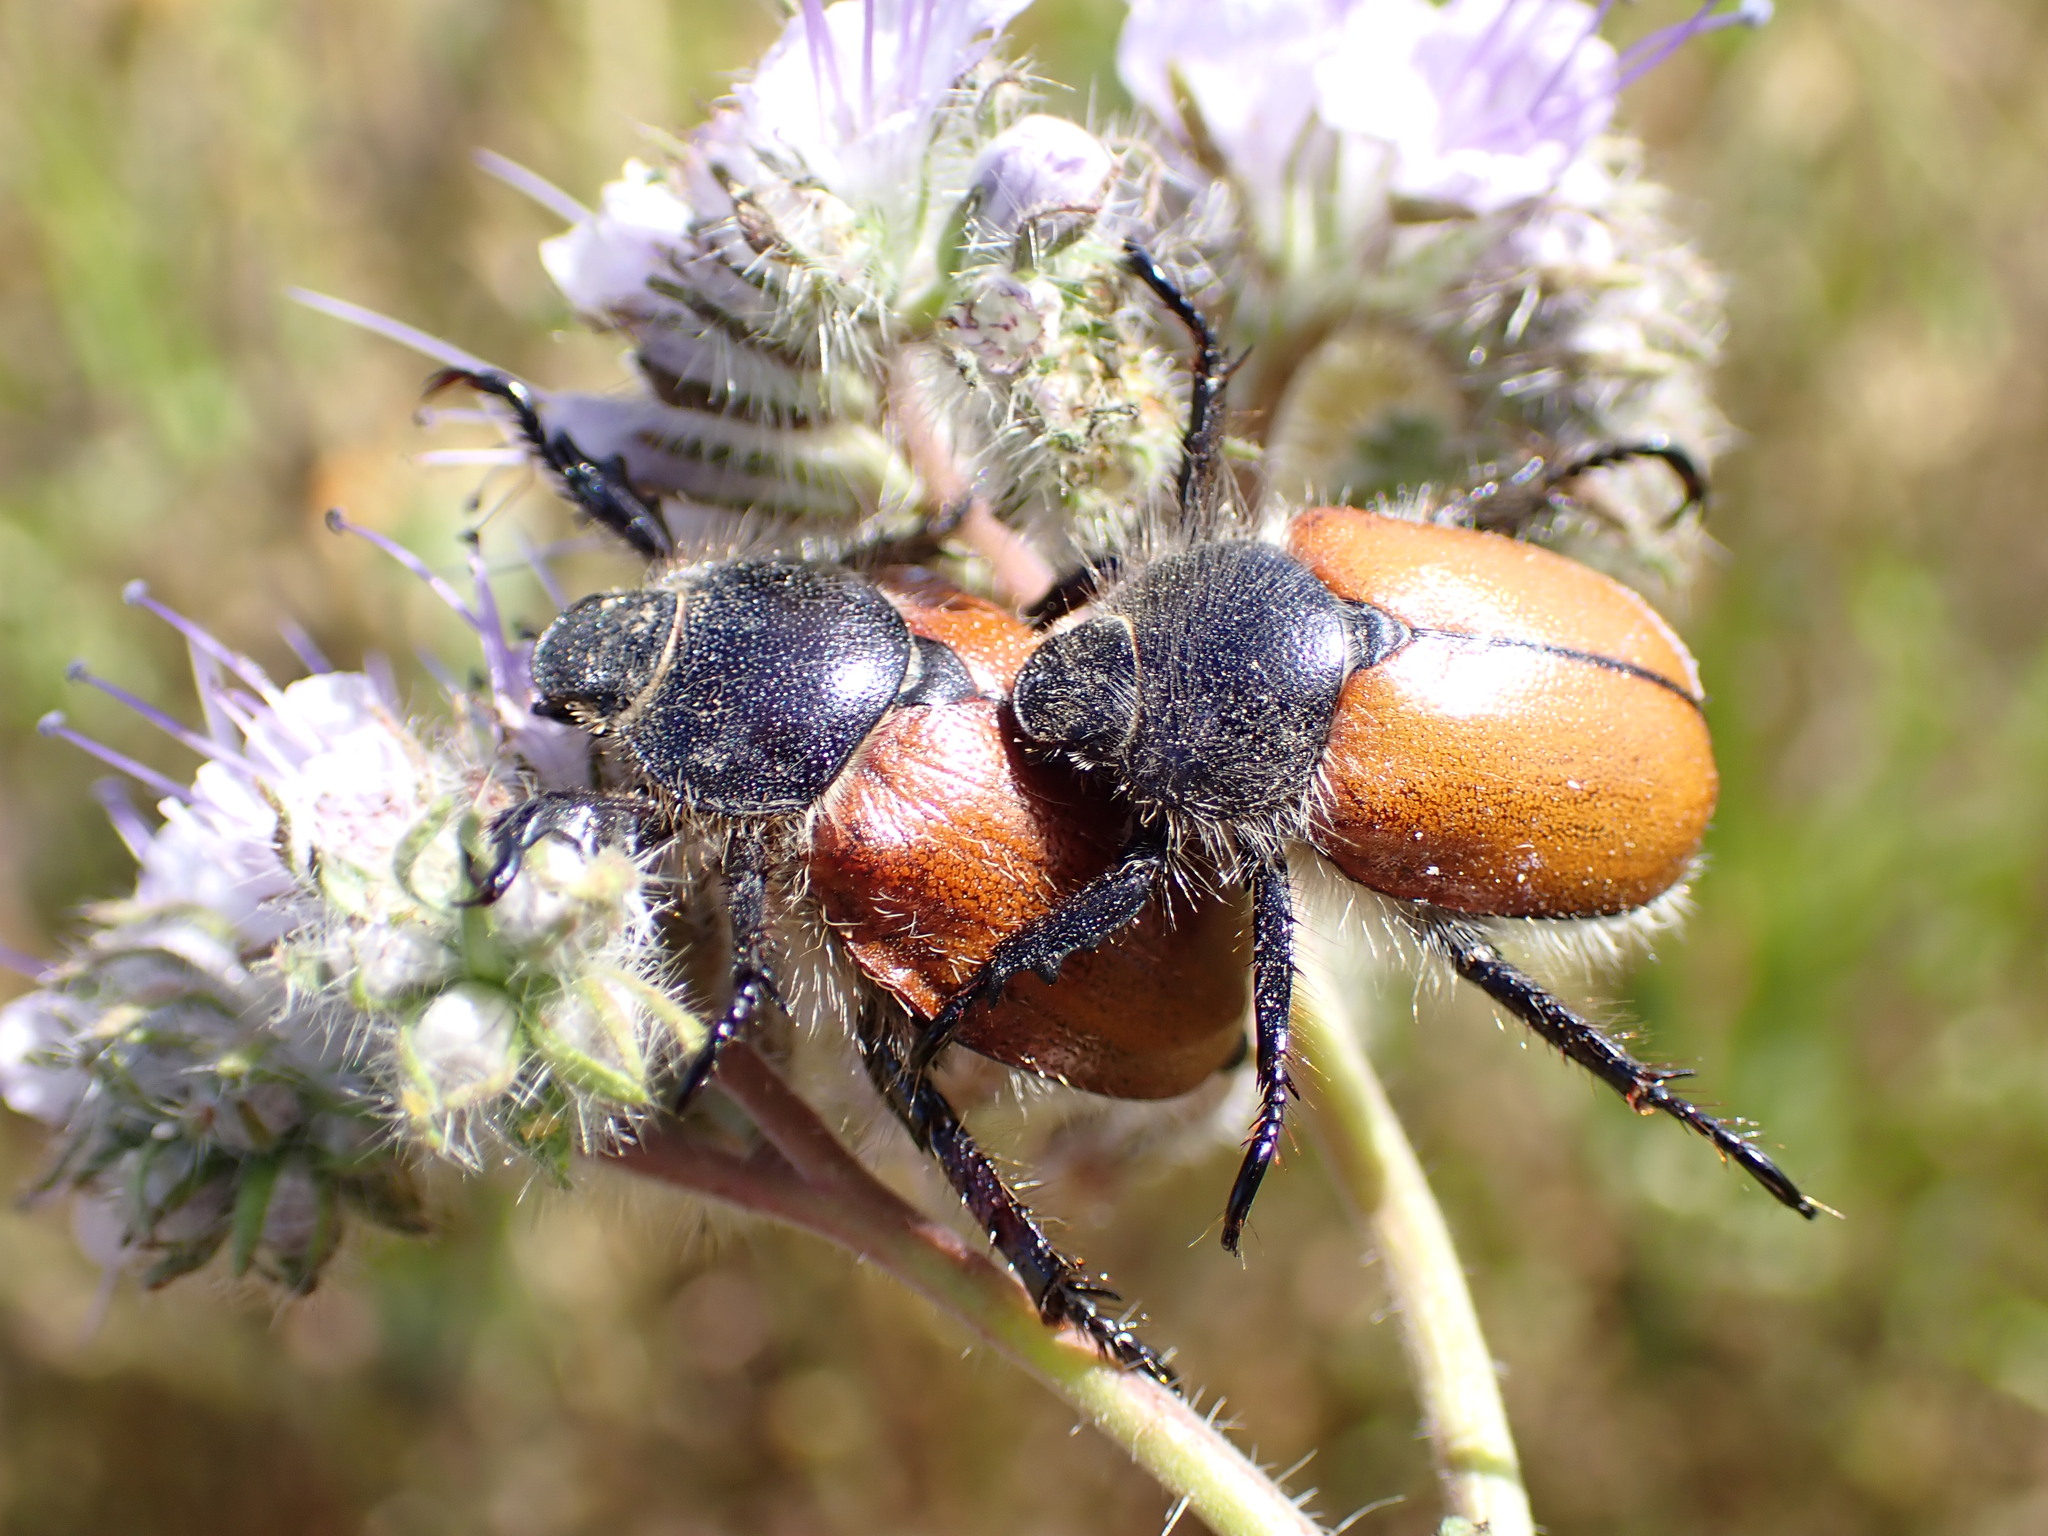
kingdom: Animalia
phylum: Arthropoda
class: Insecta
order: Coleoptera
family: Scarabaeidae
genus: Paracotalpa
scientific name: Paracotalpa ursina
